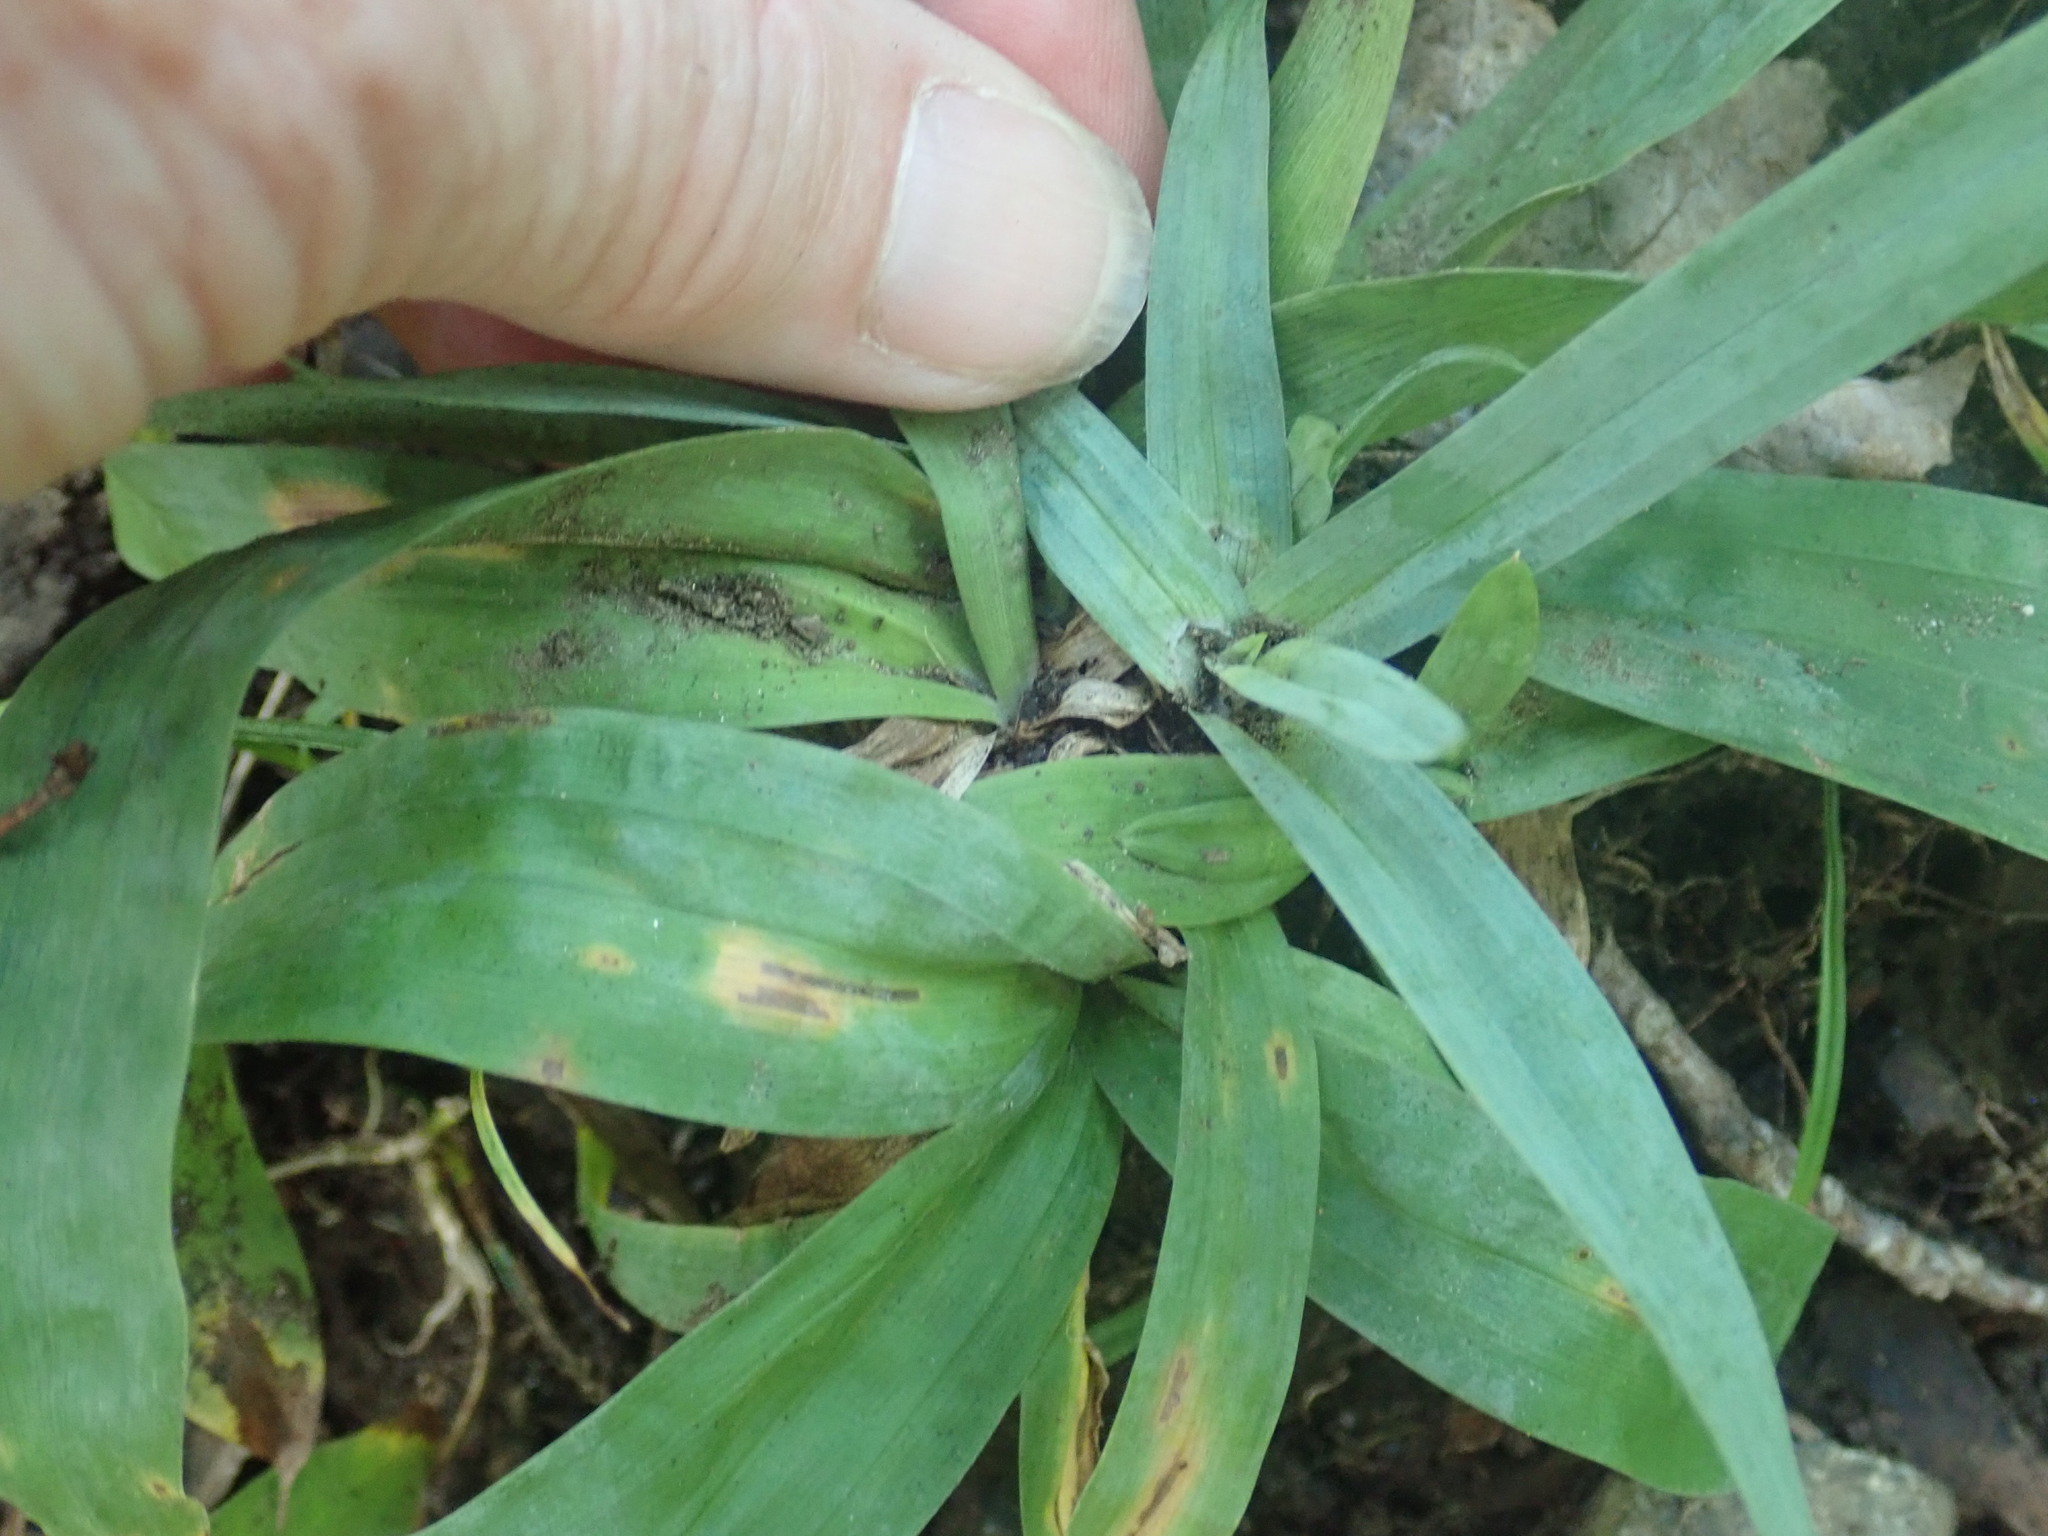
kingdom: Plantae
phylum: Tracheophyta
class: Liliopsida
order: Poales
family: Cyperaceae
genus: Carex
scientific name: Carex platyphylla
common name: Broad-leaved sedge
